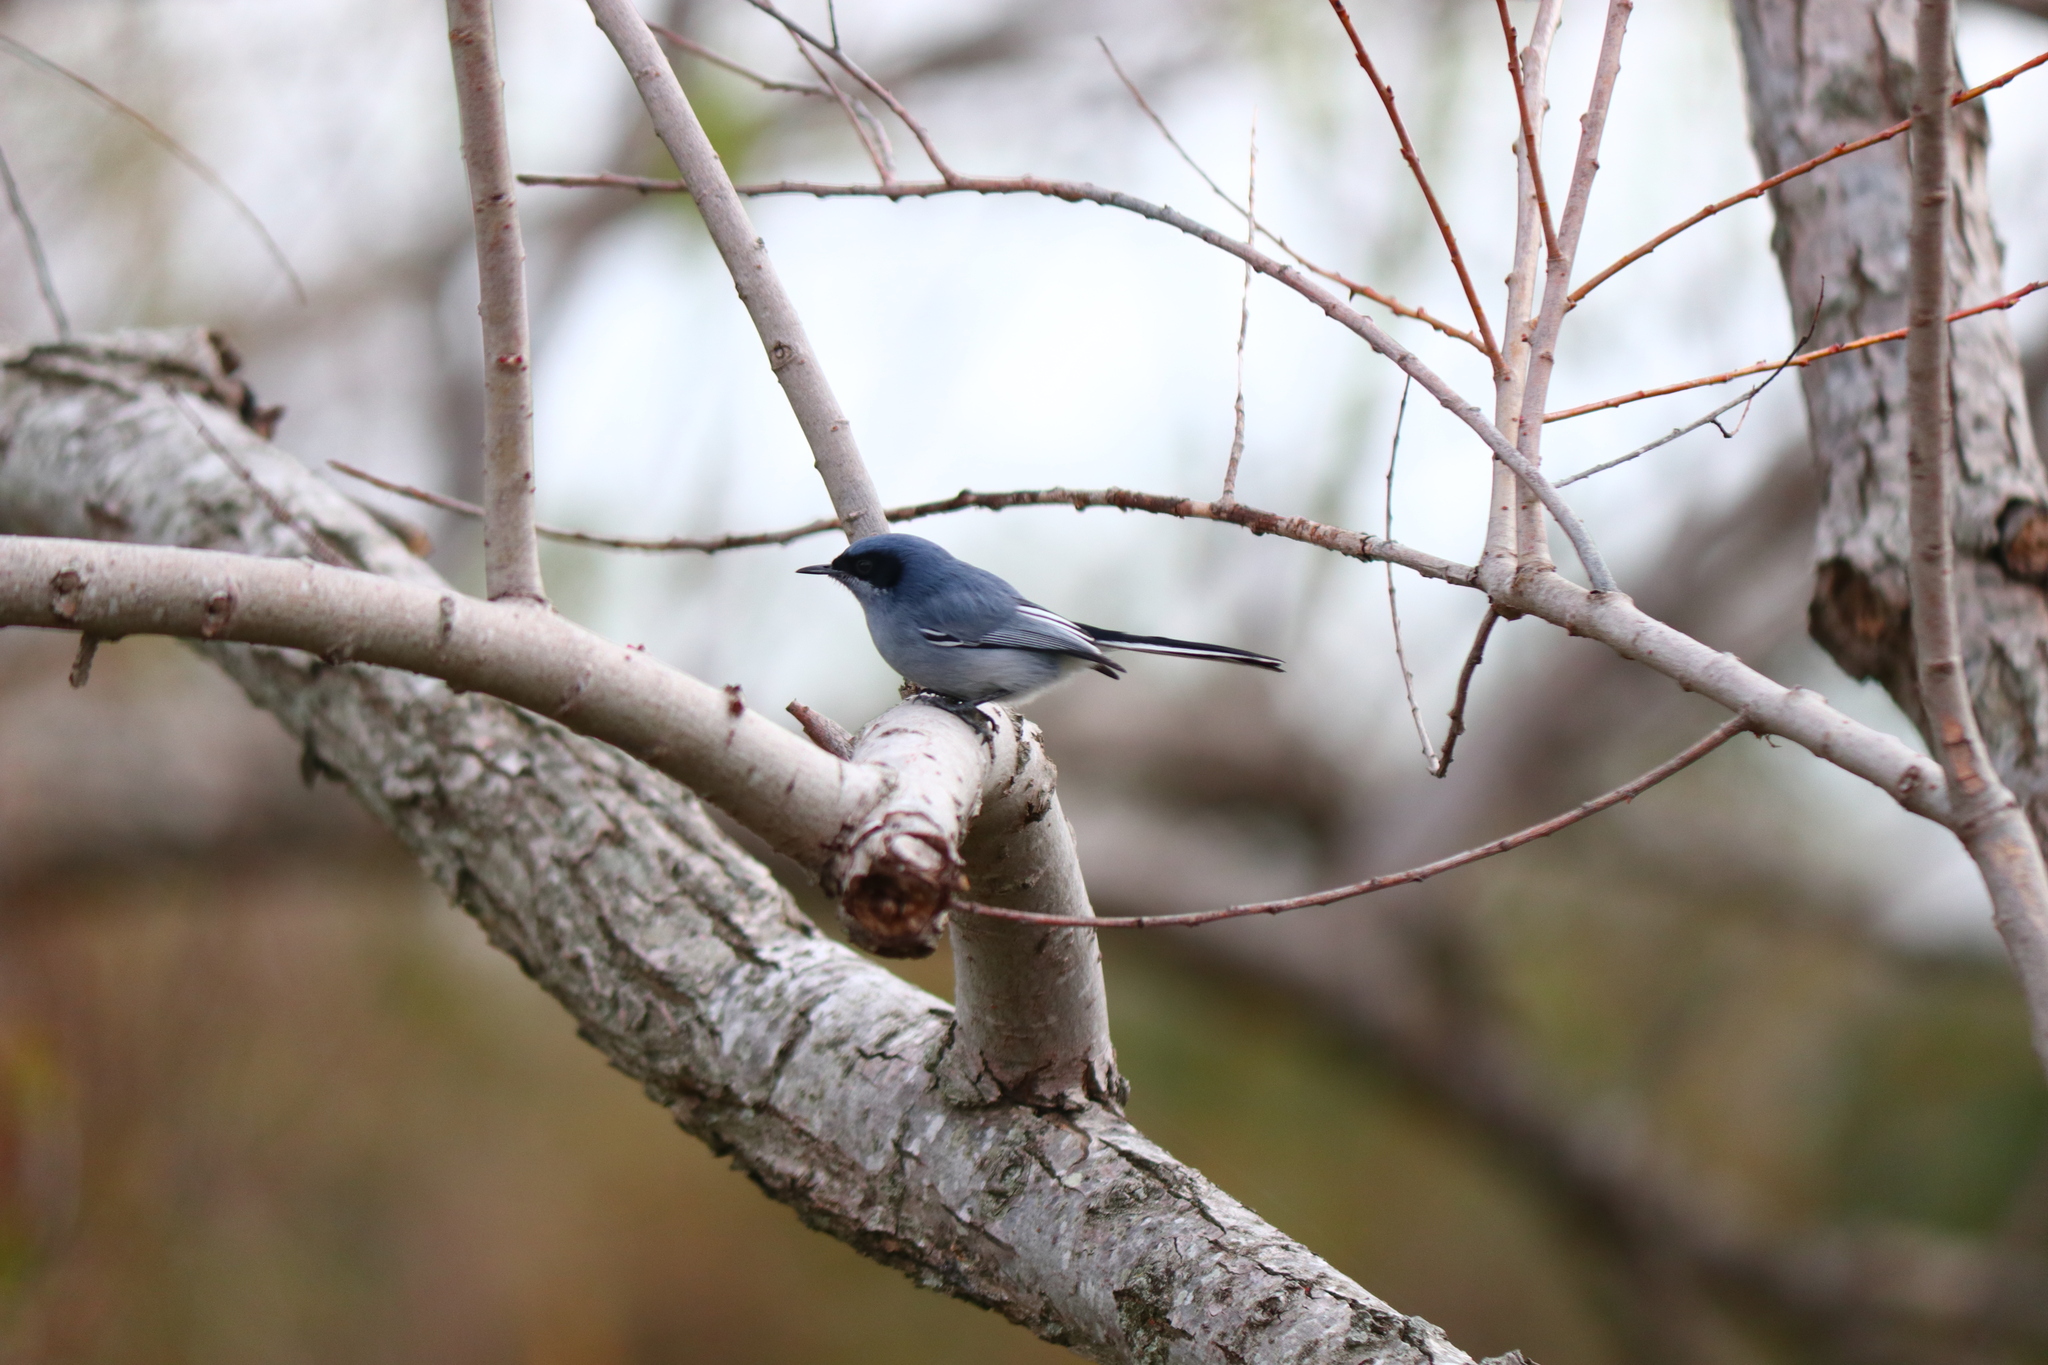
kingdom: Animalia
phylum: Chordata
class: Aves
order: Passeriformes
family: Polioptilidae
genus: Polioptila
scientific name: Polioptila dumicola
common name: Masked gnatcatcher
